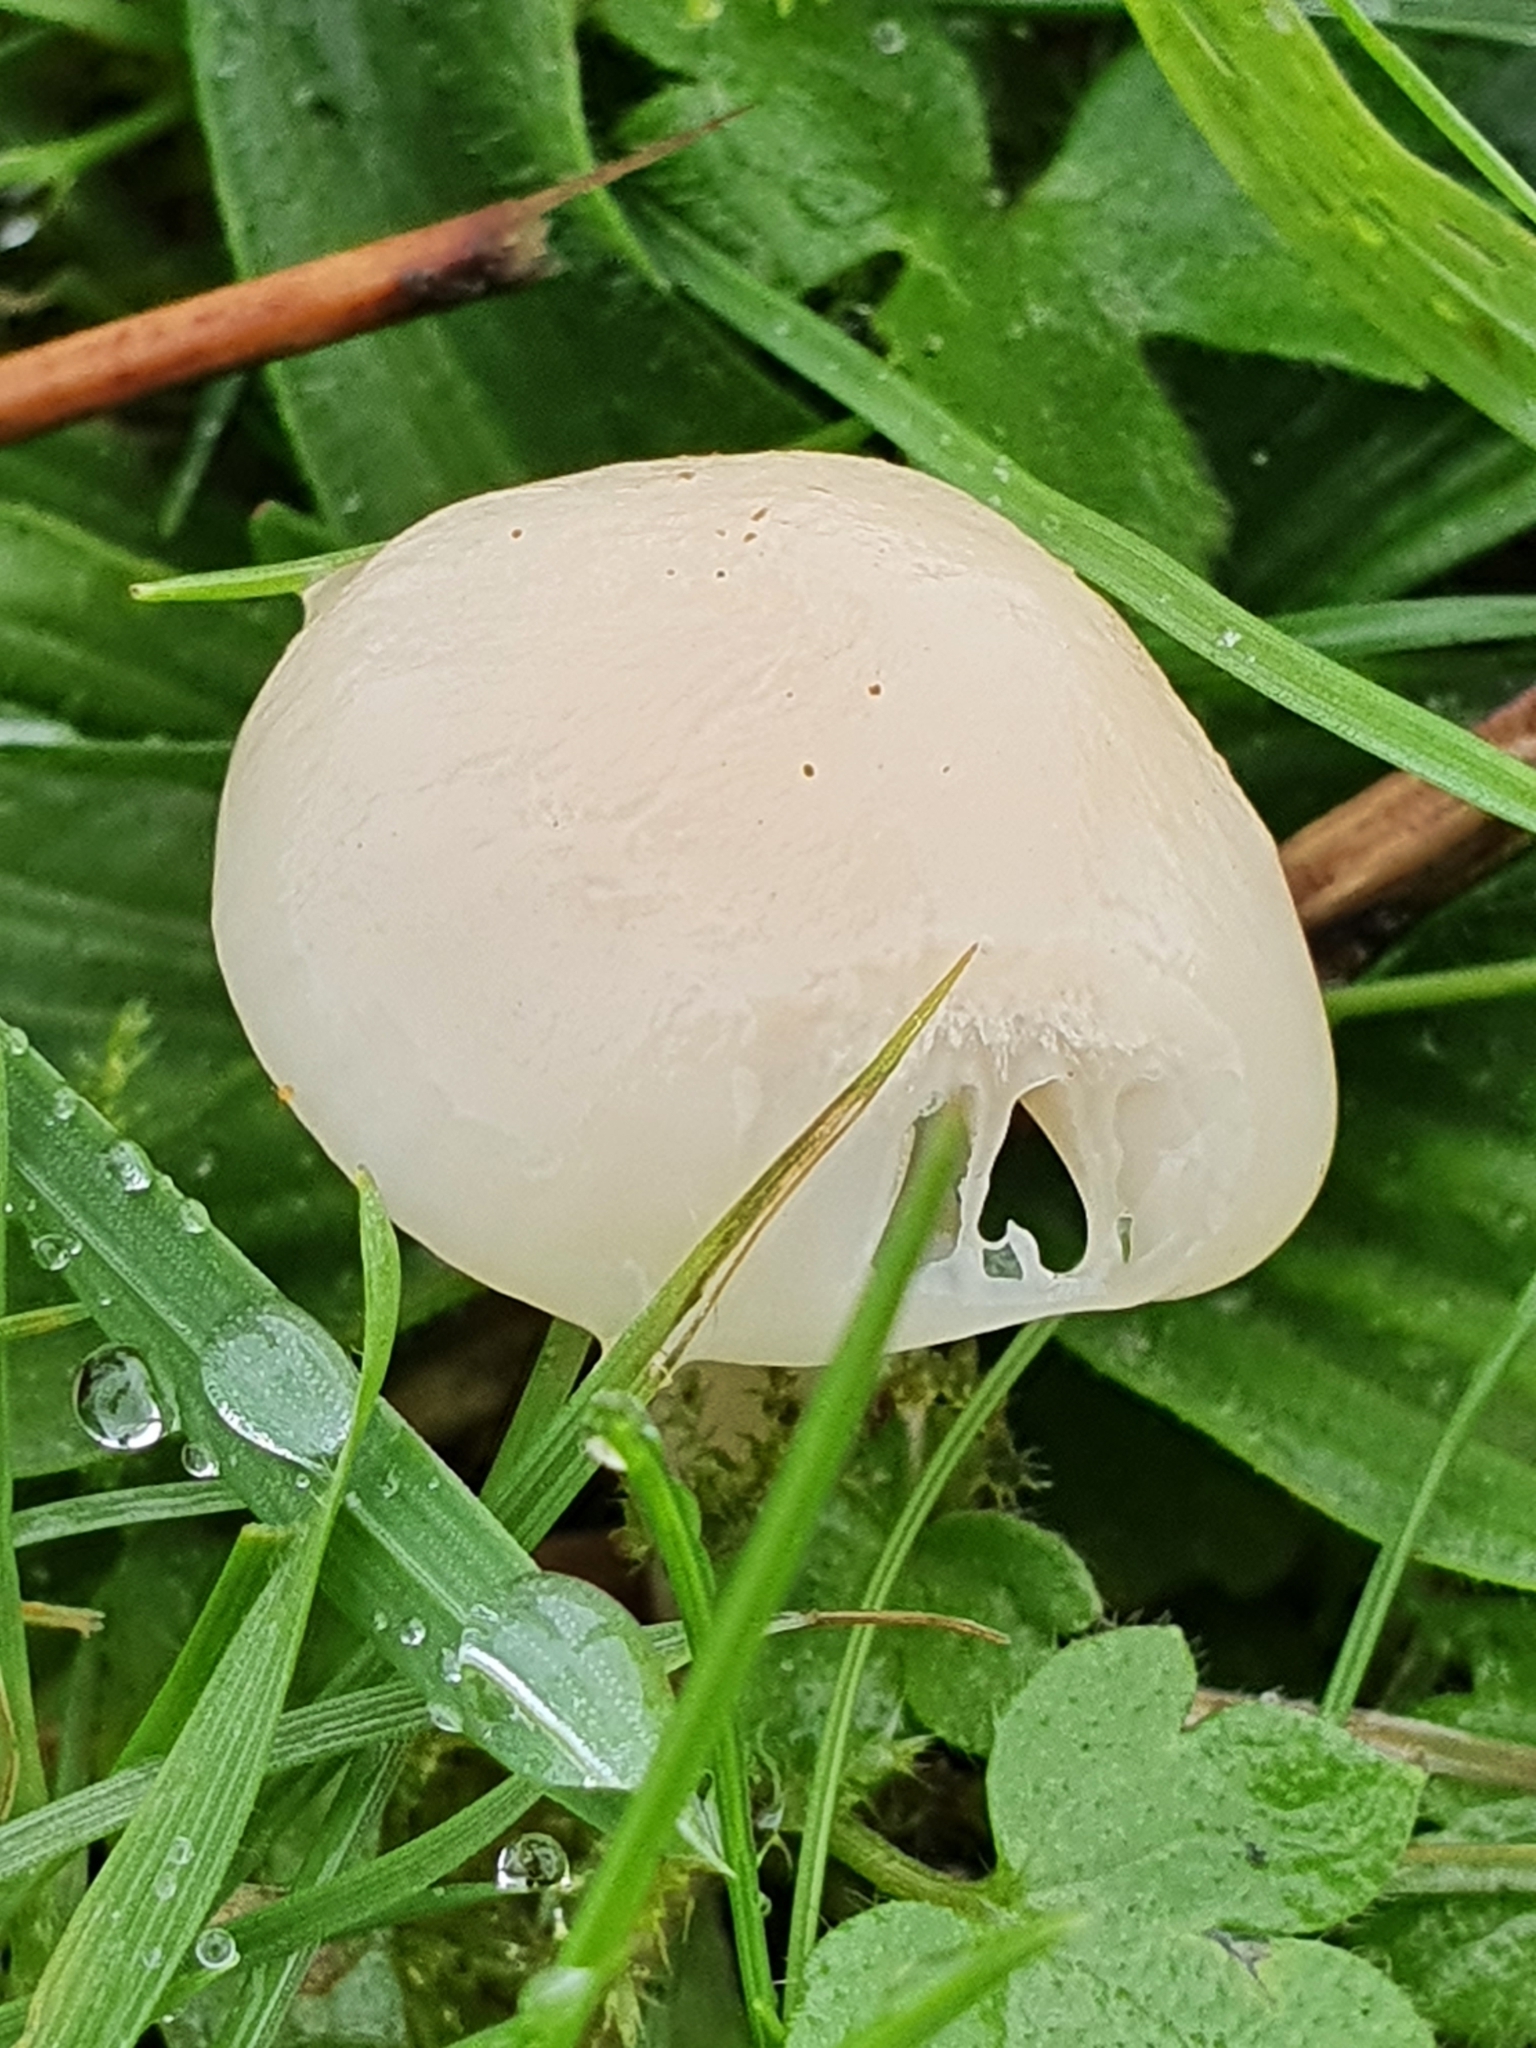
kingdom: Fungi
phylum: Basidiomycota
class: Agaricomycetes
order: Agaricales
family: Hygrophoraceae
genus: Cuphophyllus
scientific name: Cuphophyllus virgineus
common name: Snowy waxcap
